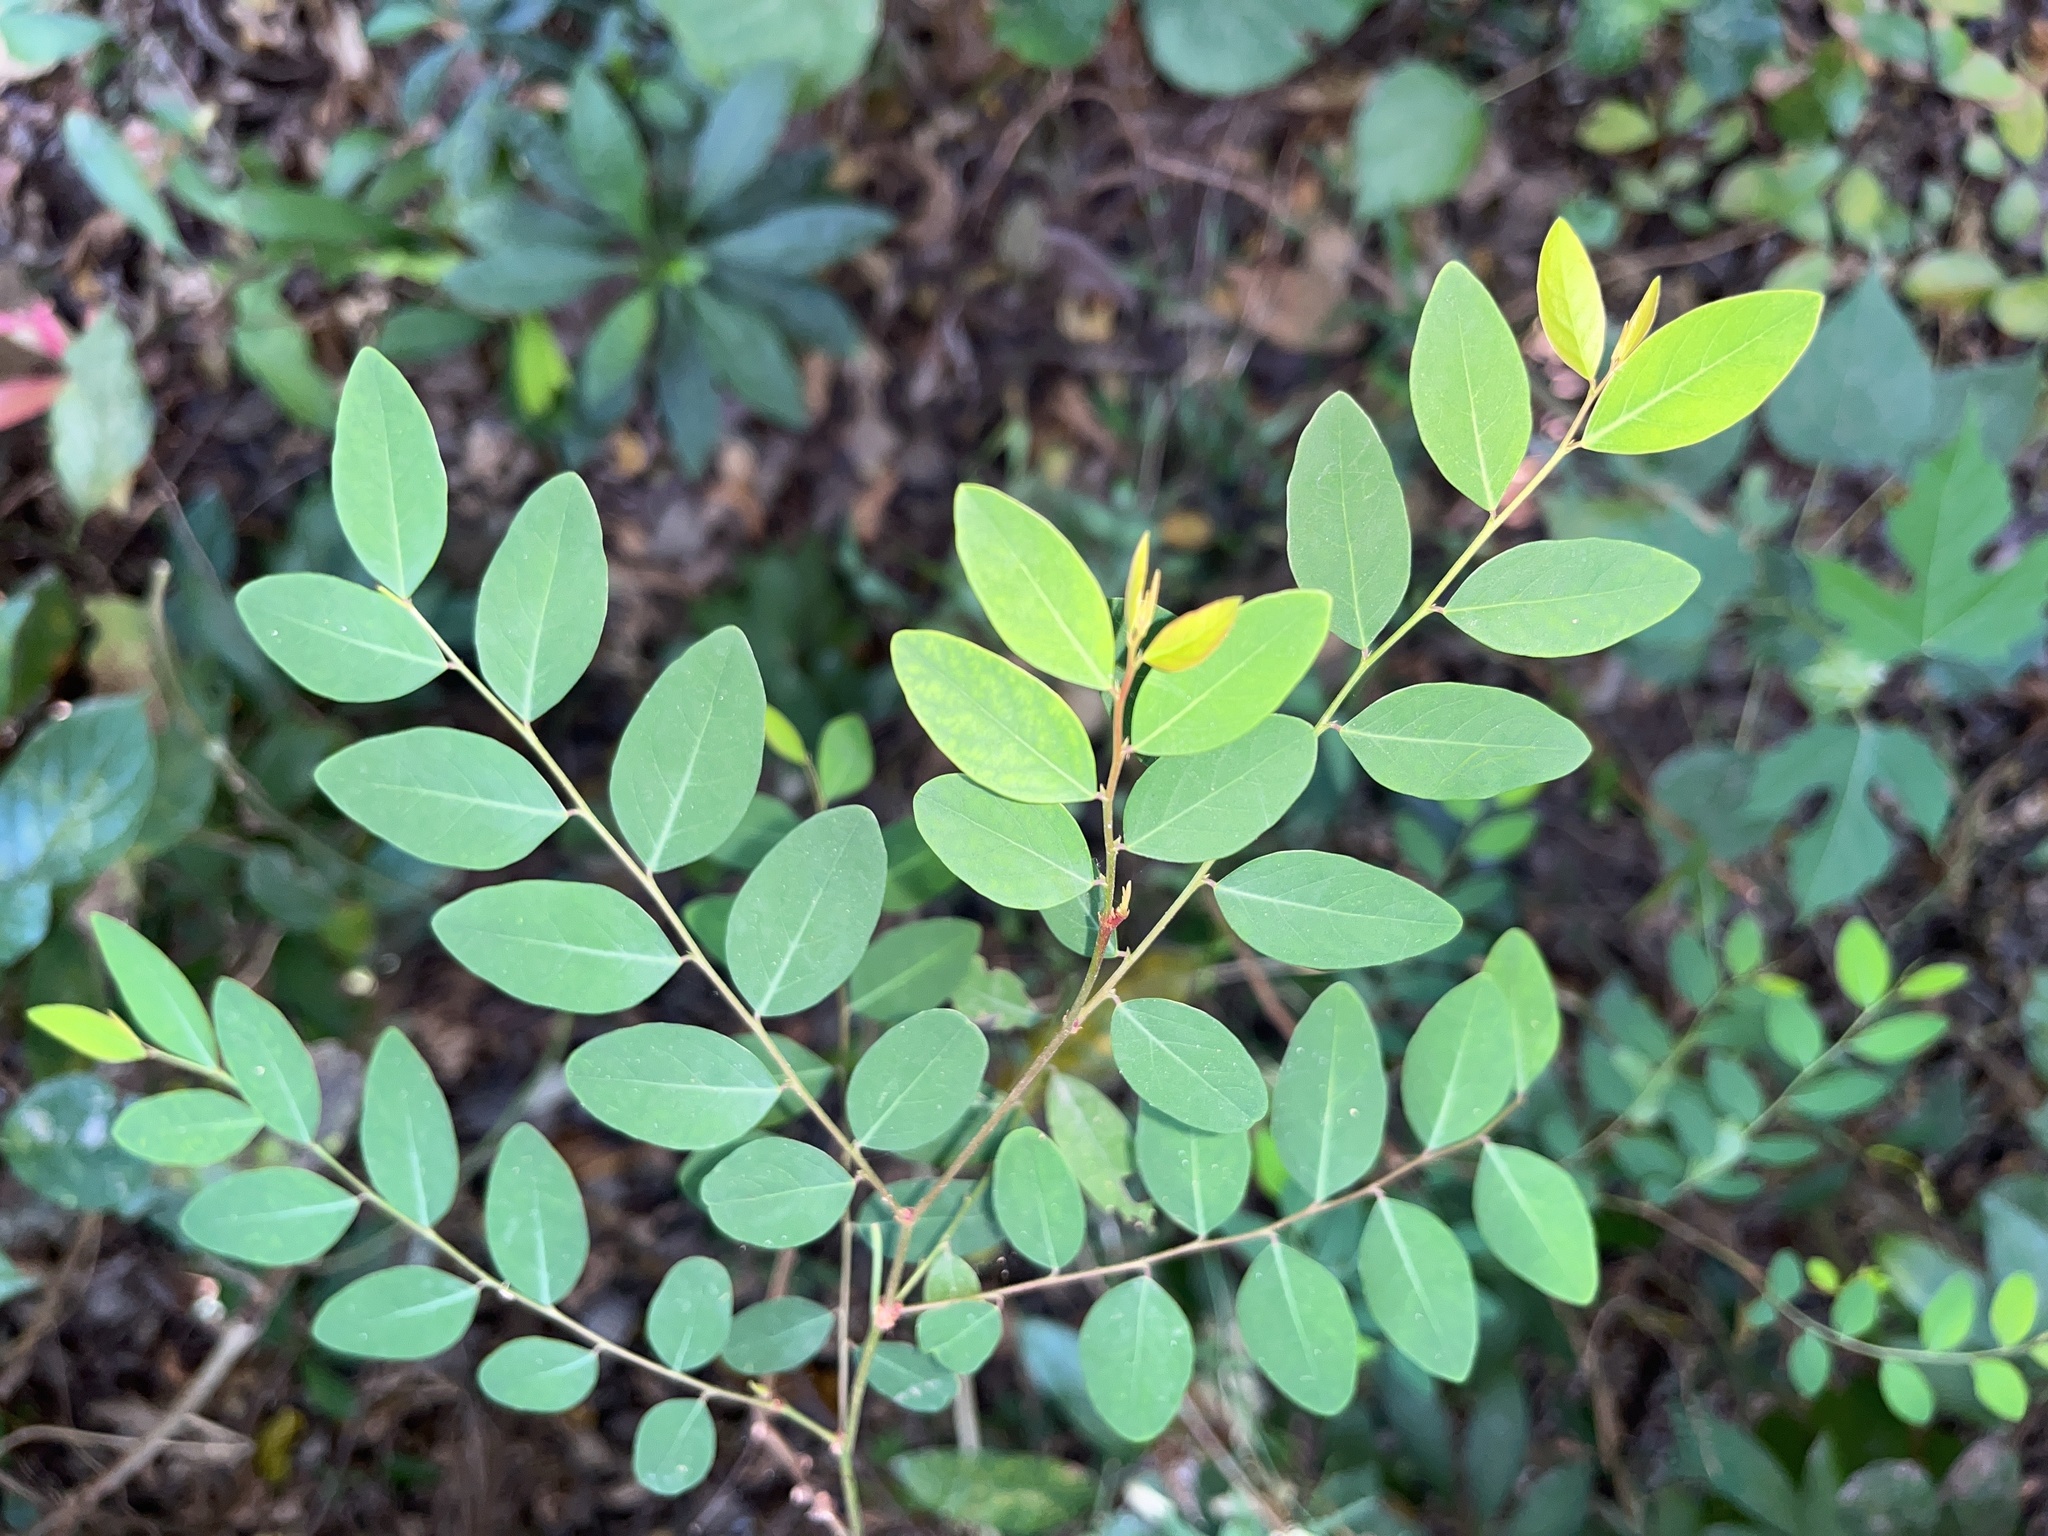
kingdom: Plantae
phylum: Tracheophyta
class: Magnoliopsida
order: Malpighiales
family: Phyllanthaceae
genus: Phyllanthus
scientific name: Phyllanthus reticulatus
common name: Potato bush
